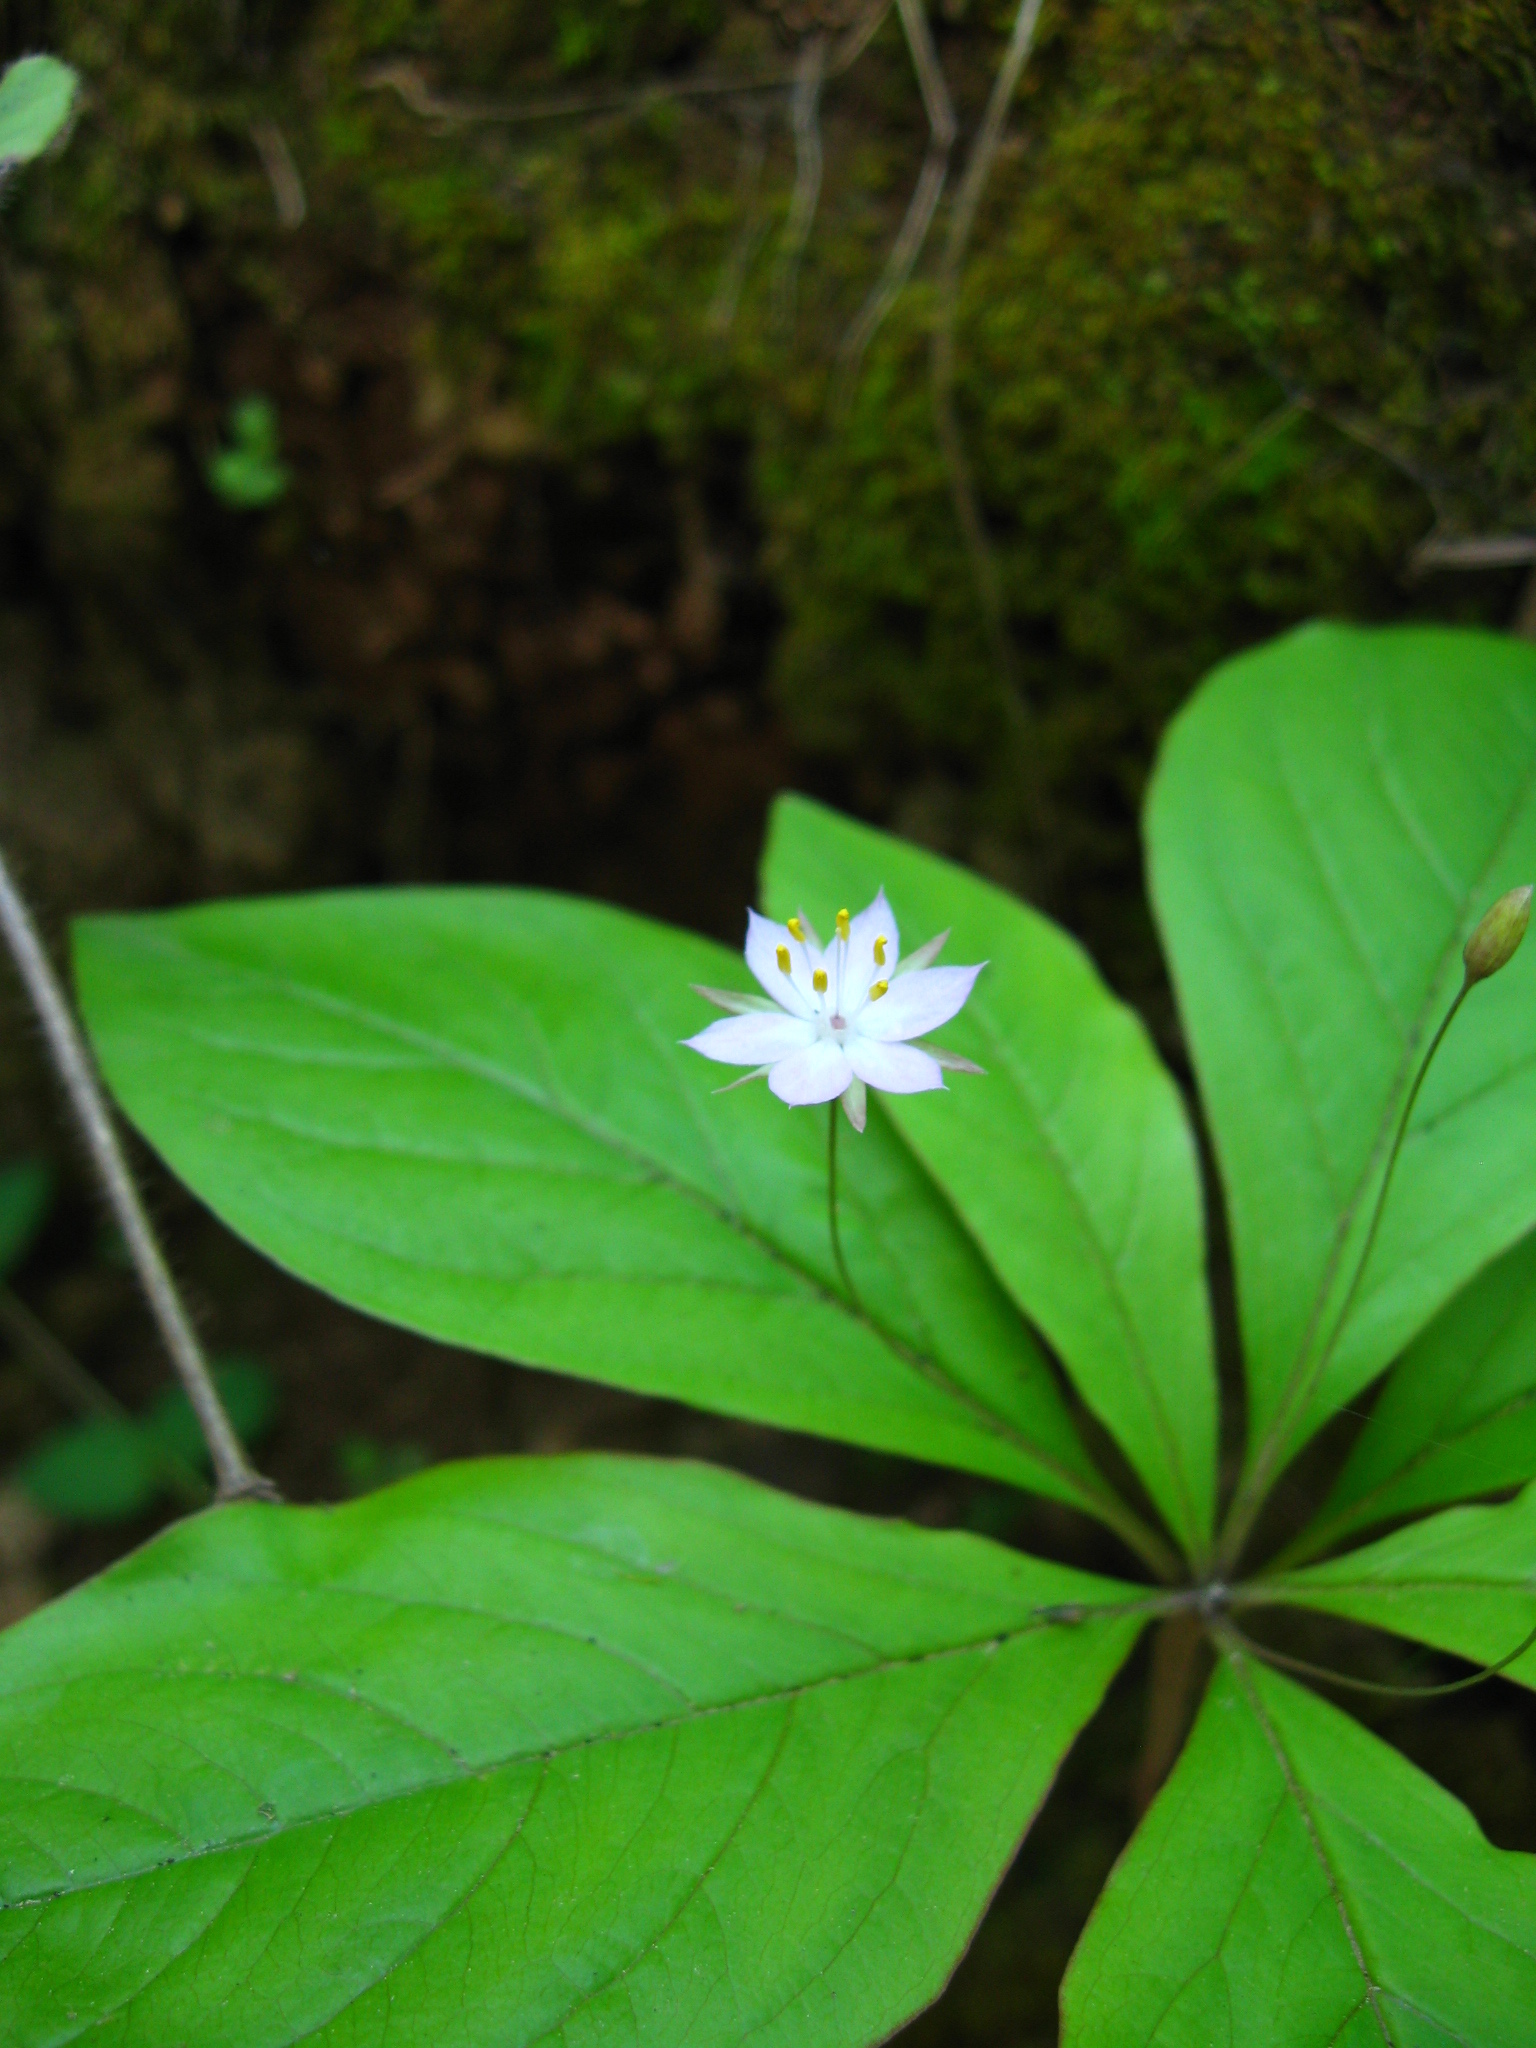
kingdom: Plantae
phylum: Tracheophyta
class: Magnoliopsida
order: Ericales
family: Primulaceae
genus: Lysimachia
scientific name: Lysimachia latifolia
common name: Pacific starflower
